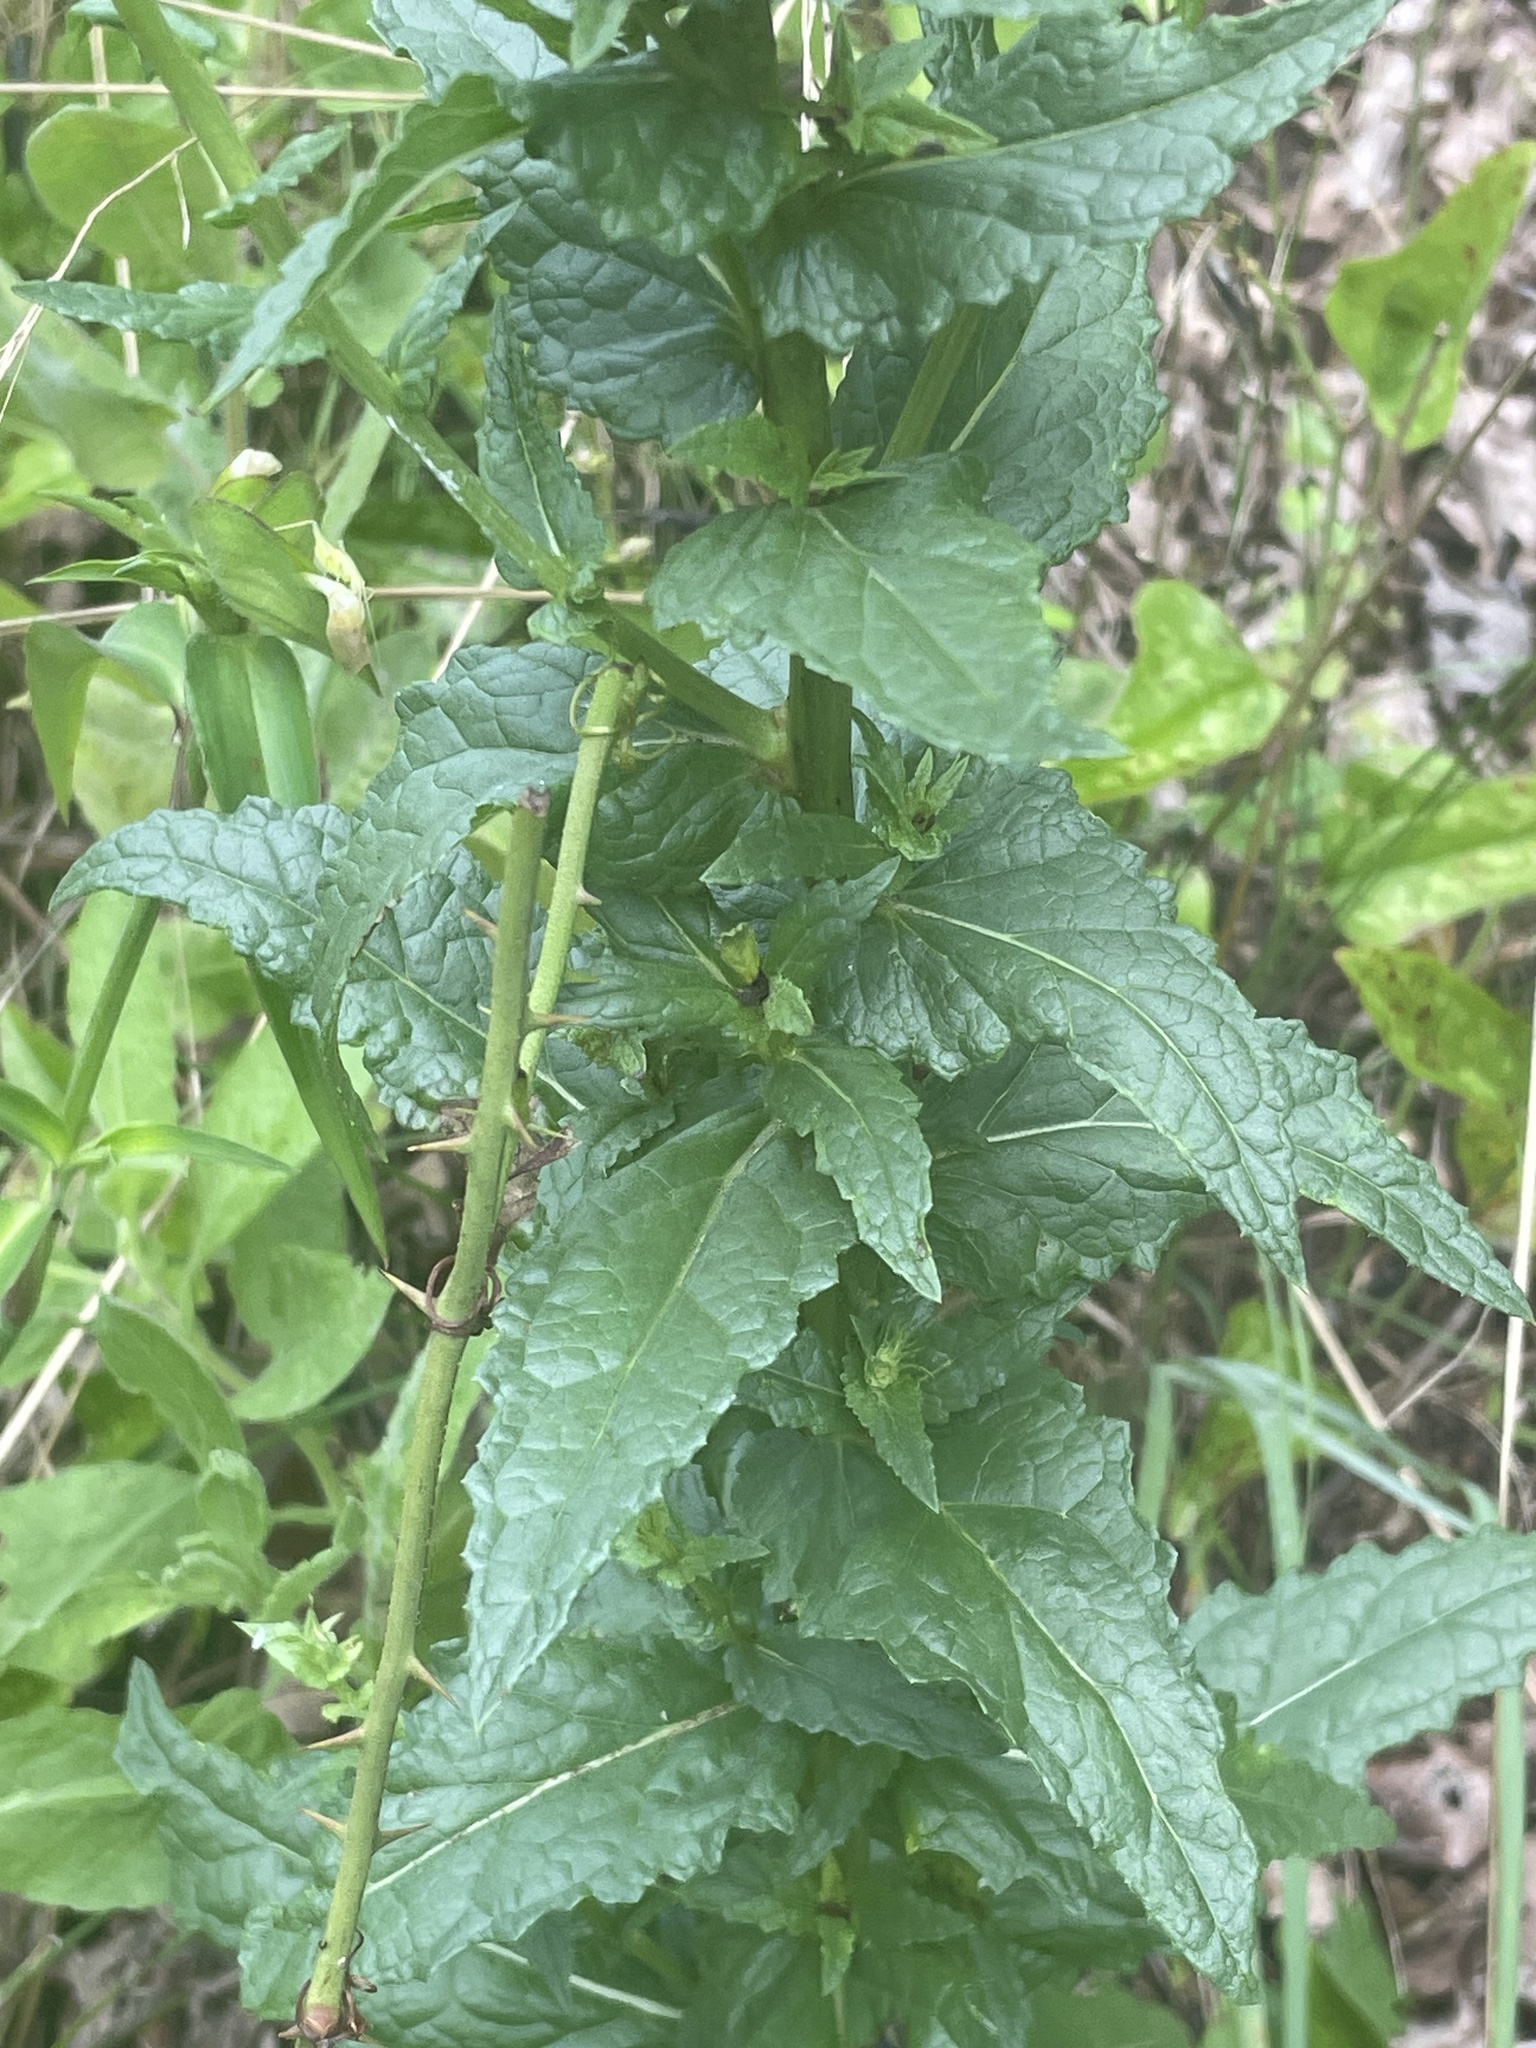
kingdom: Plantae
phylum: Tracheophyta
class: Magnoliopsida
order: Lamiales
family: Scrophulariaceae
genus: Verbascum
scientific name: Verbascum blattaria
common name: Moth mullein
